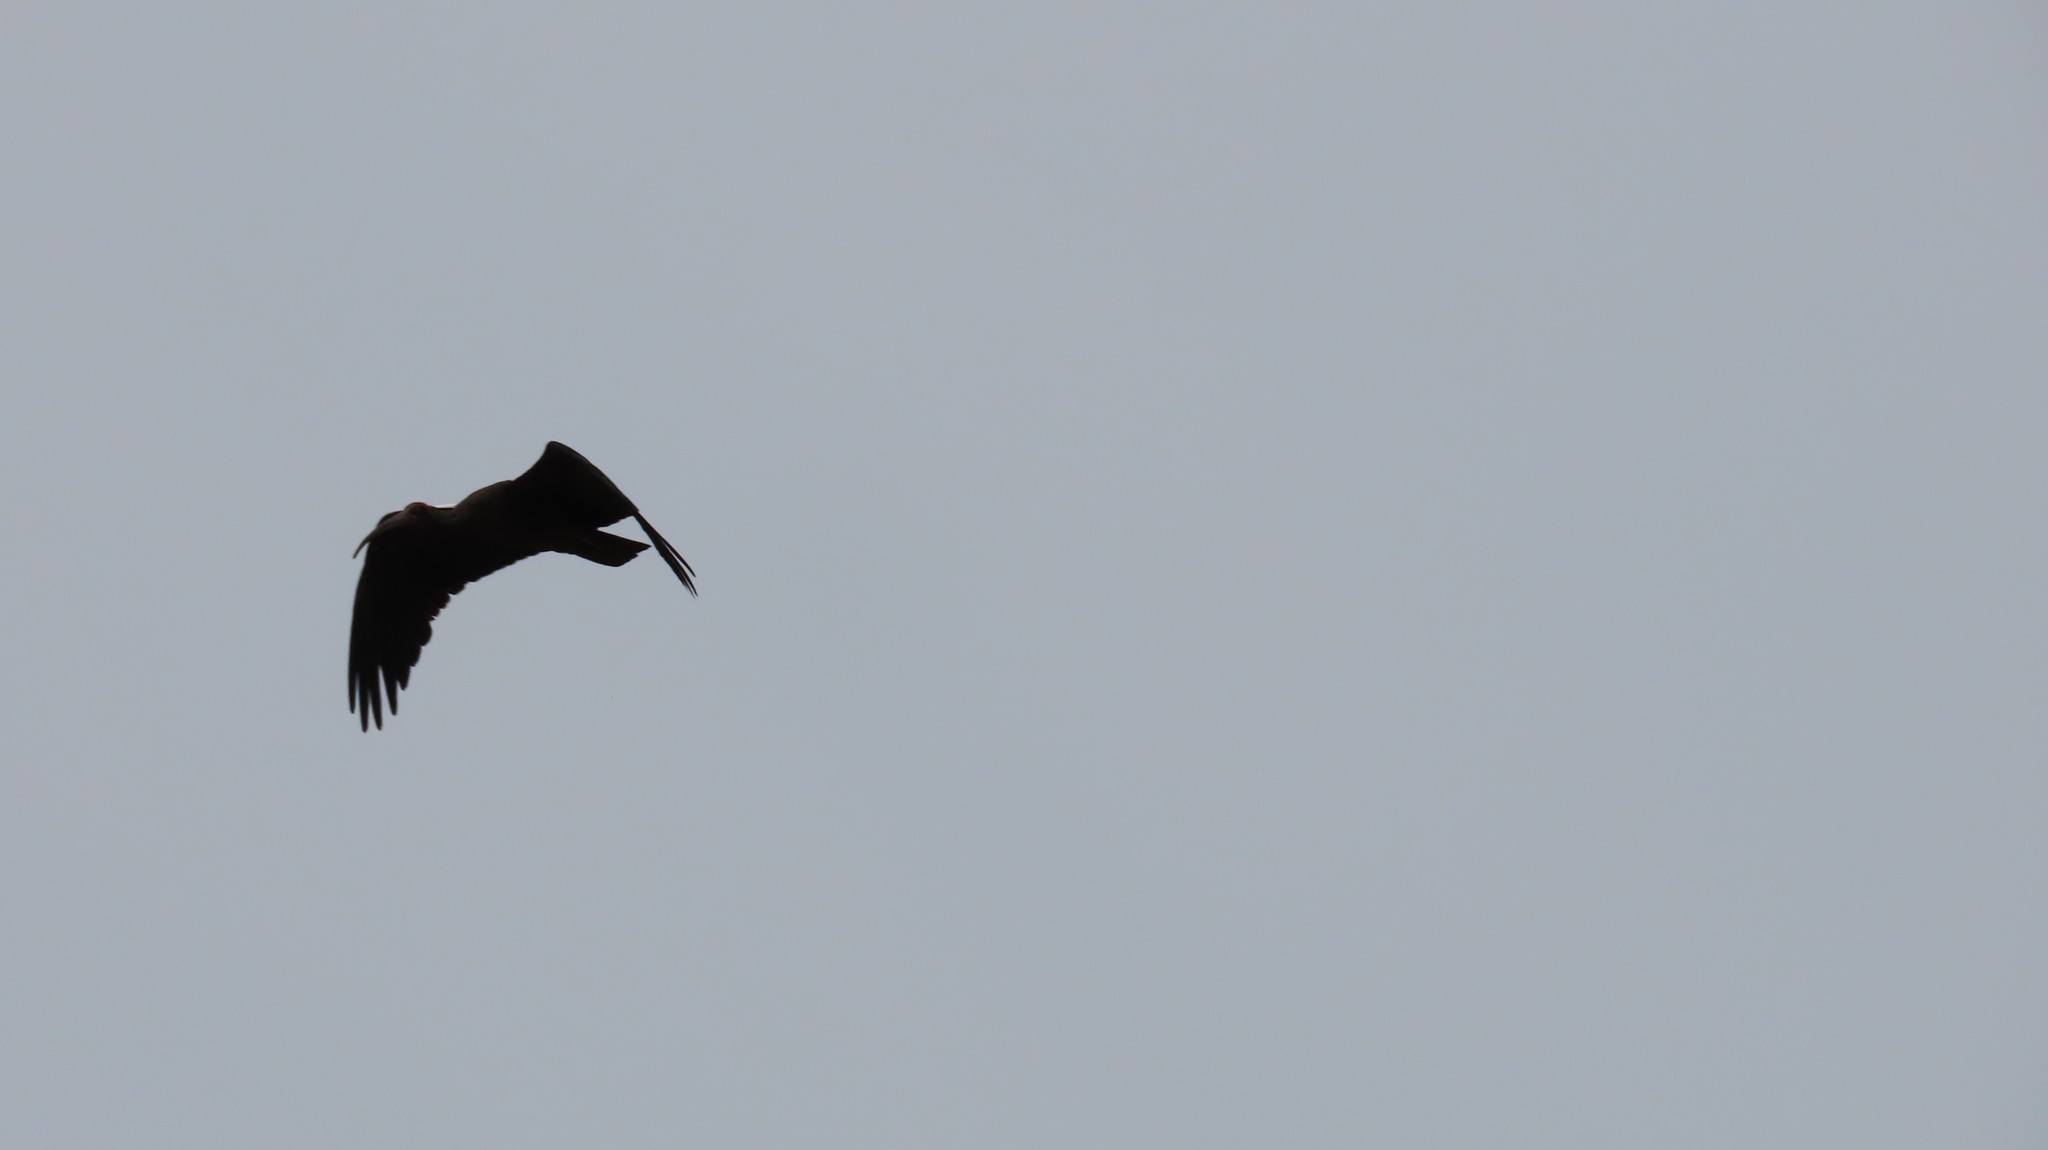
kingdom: Animalia
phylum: Chordata
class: Aves
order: Pelecaniformes
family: Threskiornithidae
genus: Pseudibis
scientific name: Pseudibis papillosa
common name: Red-naped ibis
